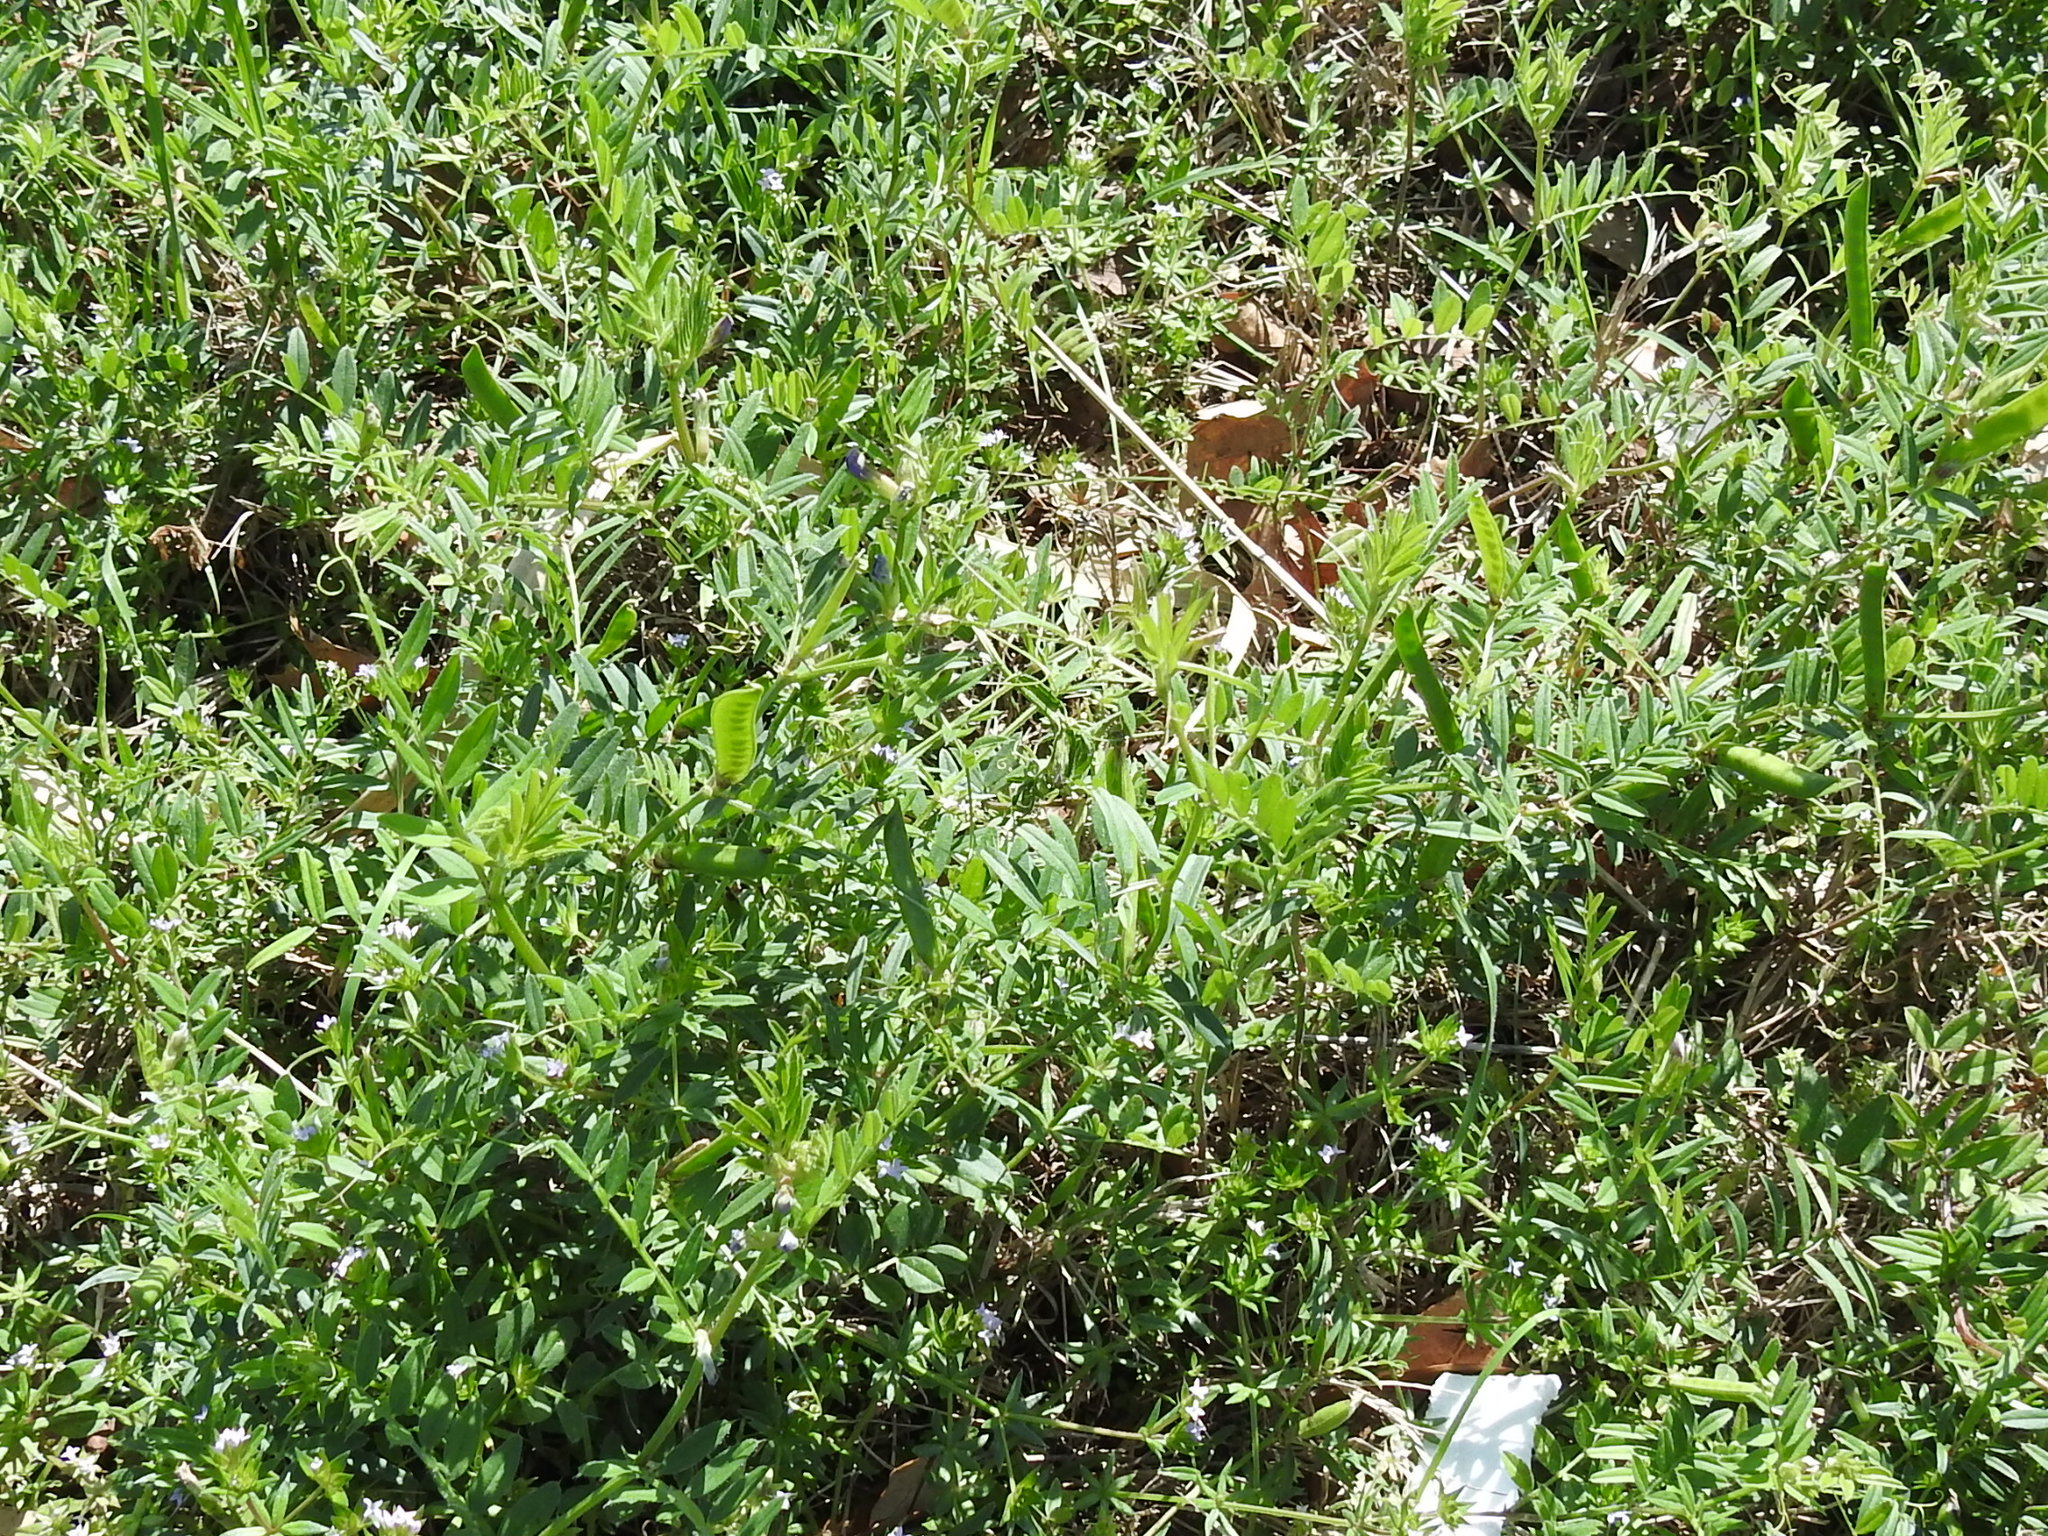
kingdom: Plantae
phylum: Tracheophyta
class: Magnoliopsida
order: Fabales
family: Fabaceae
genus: Vicia
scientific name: Vicia sativa
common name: Garden vetch
